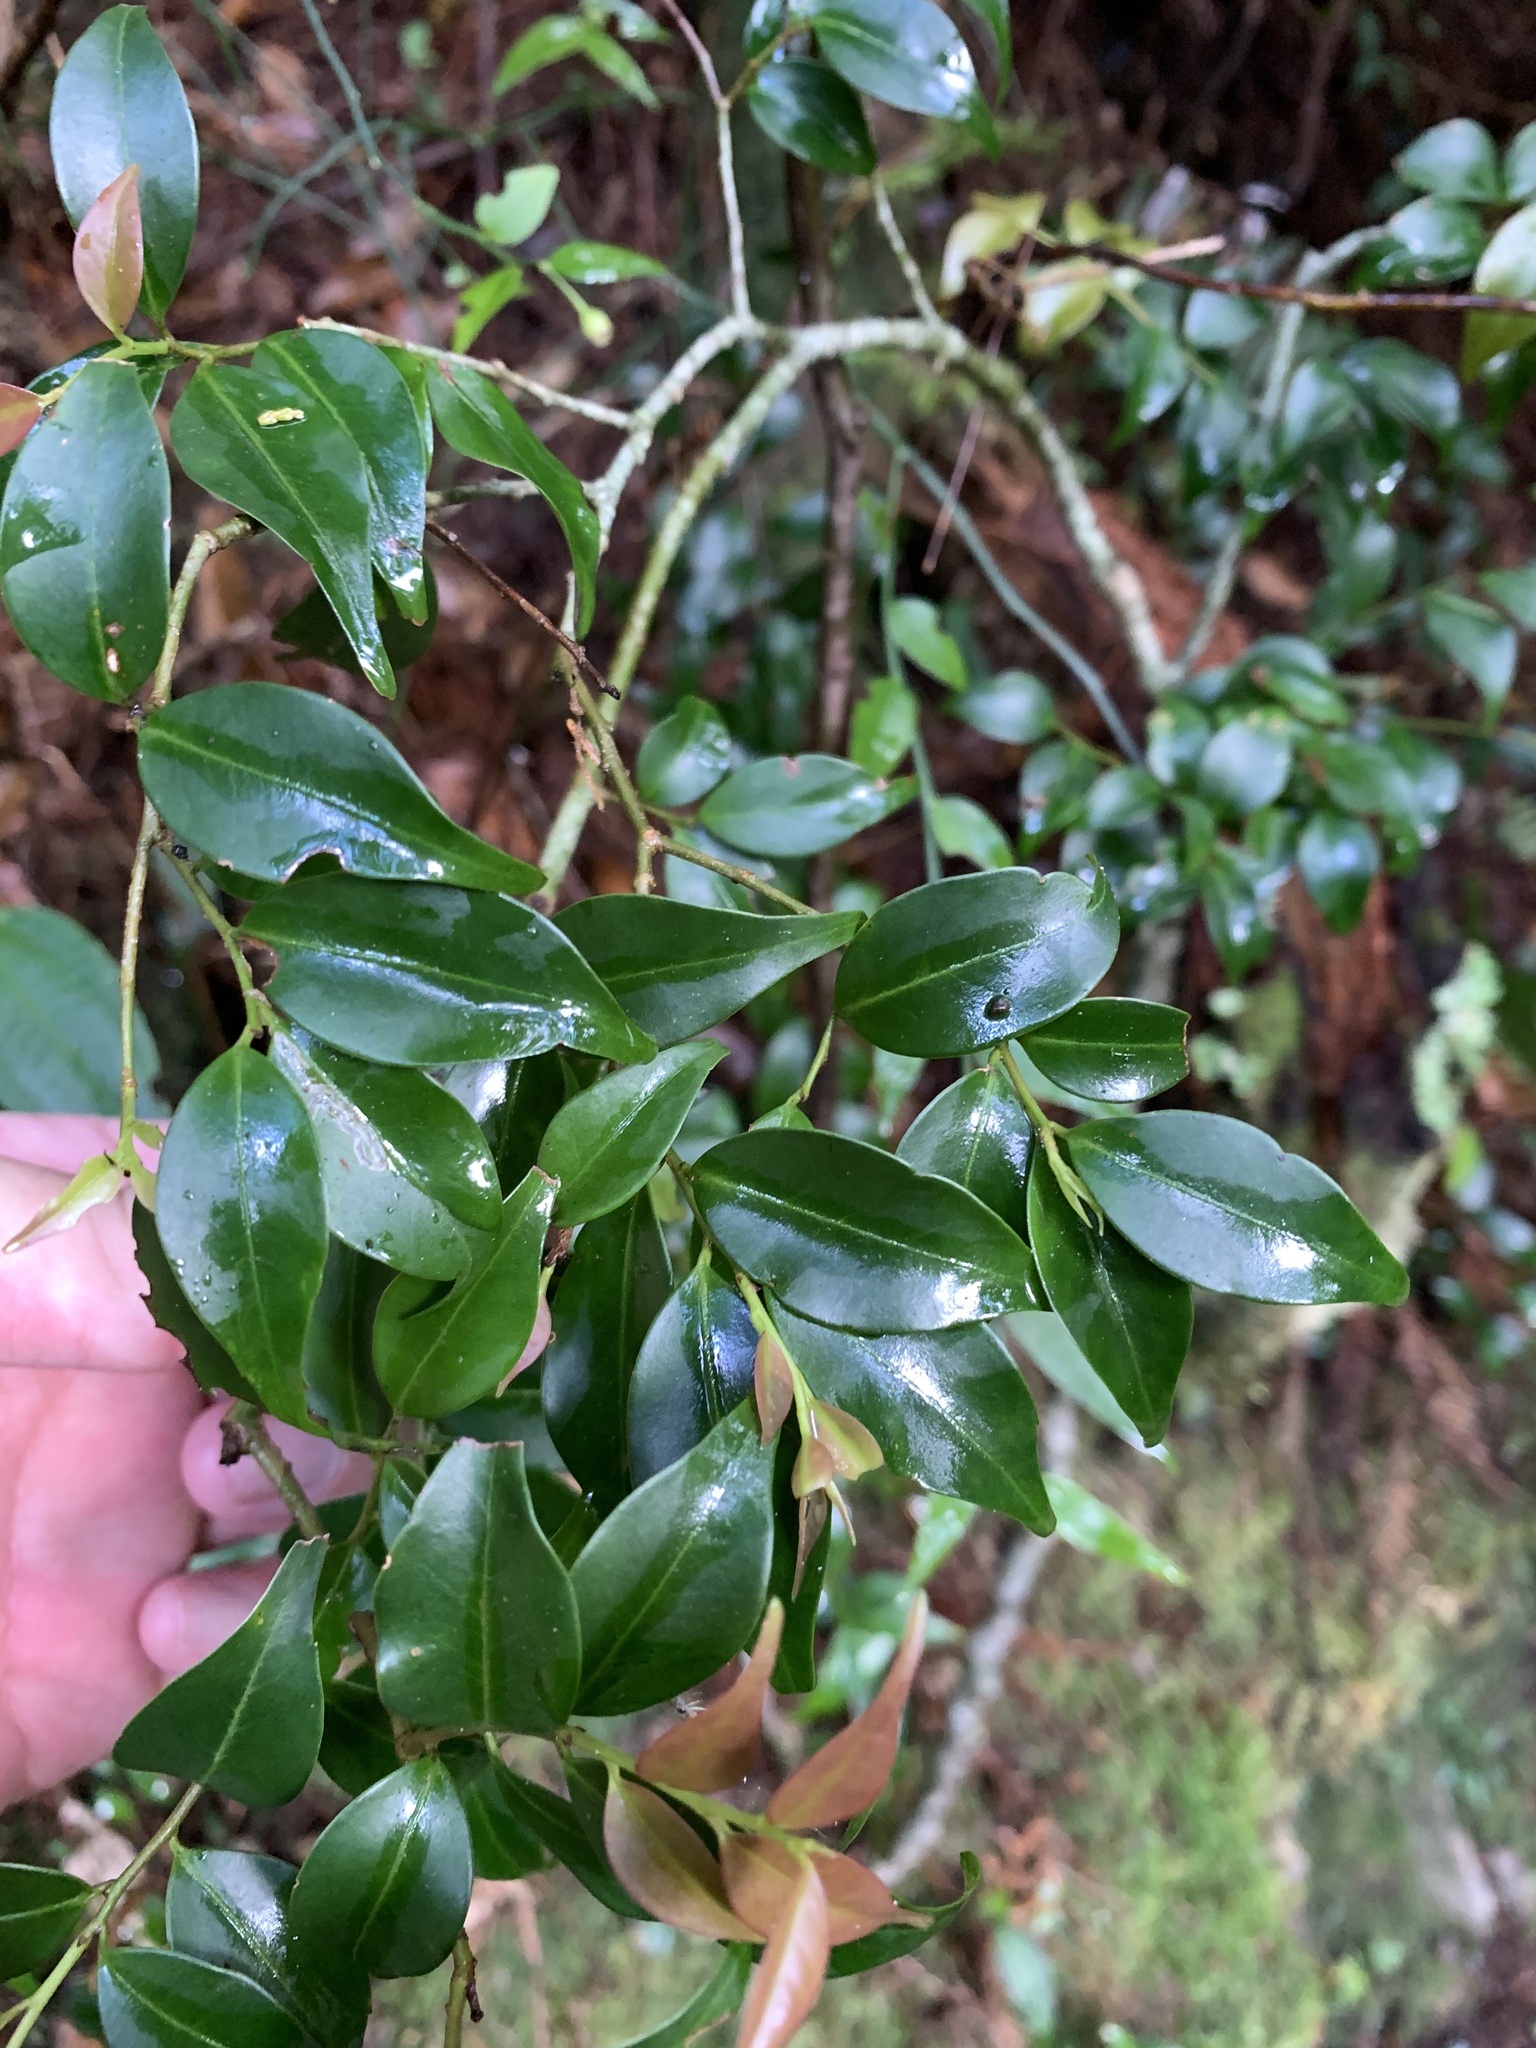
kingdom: Plantae
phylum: Tracheophyta
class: Magnoliopsida
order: Aquifoliales
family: Aquifoliaceae
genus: Ilex
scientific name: Ilex hayataiana
